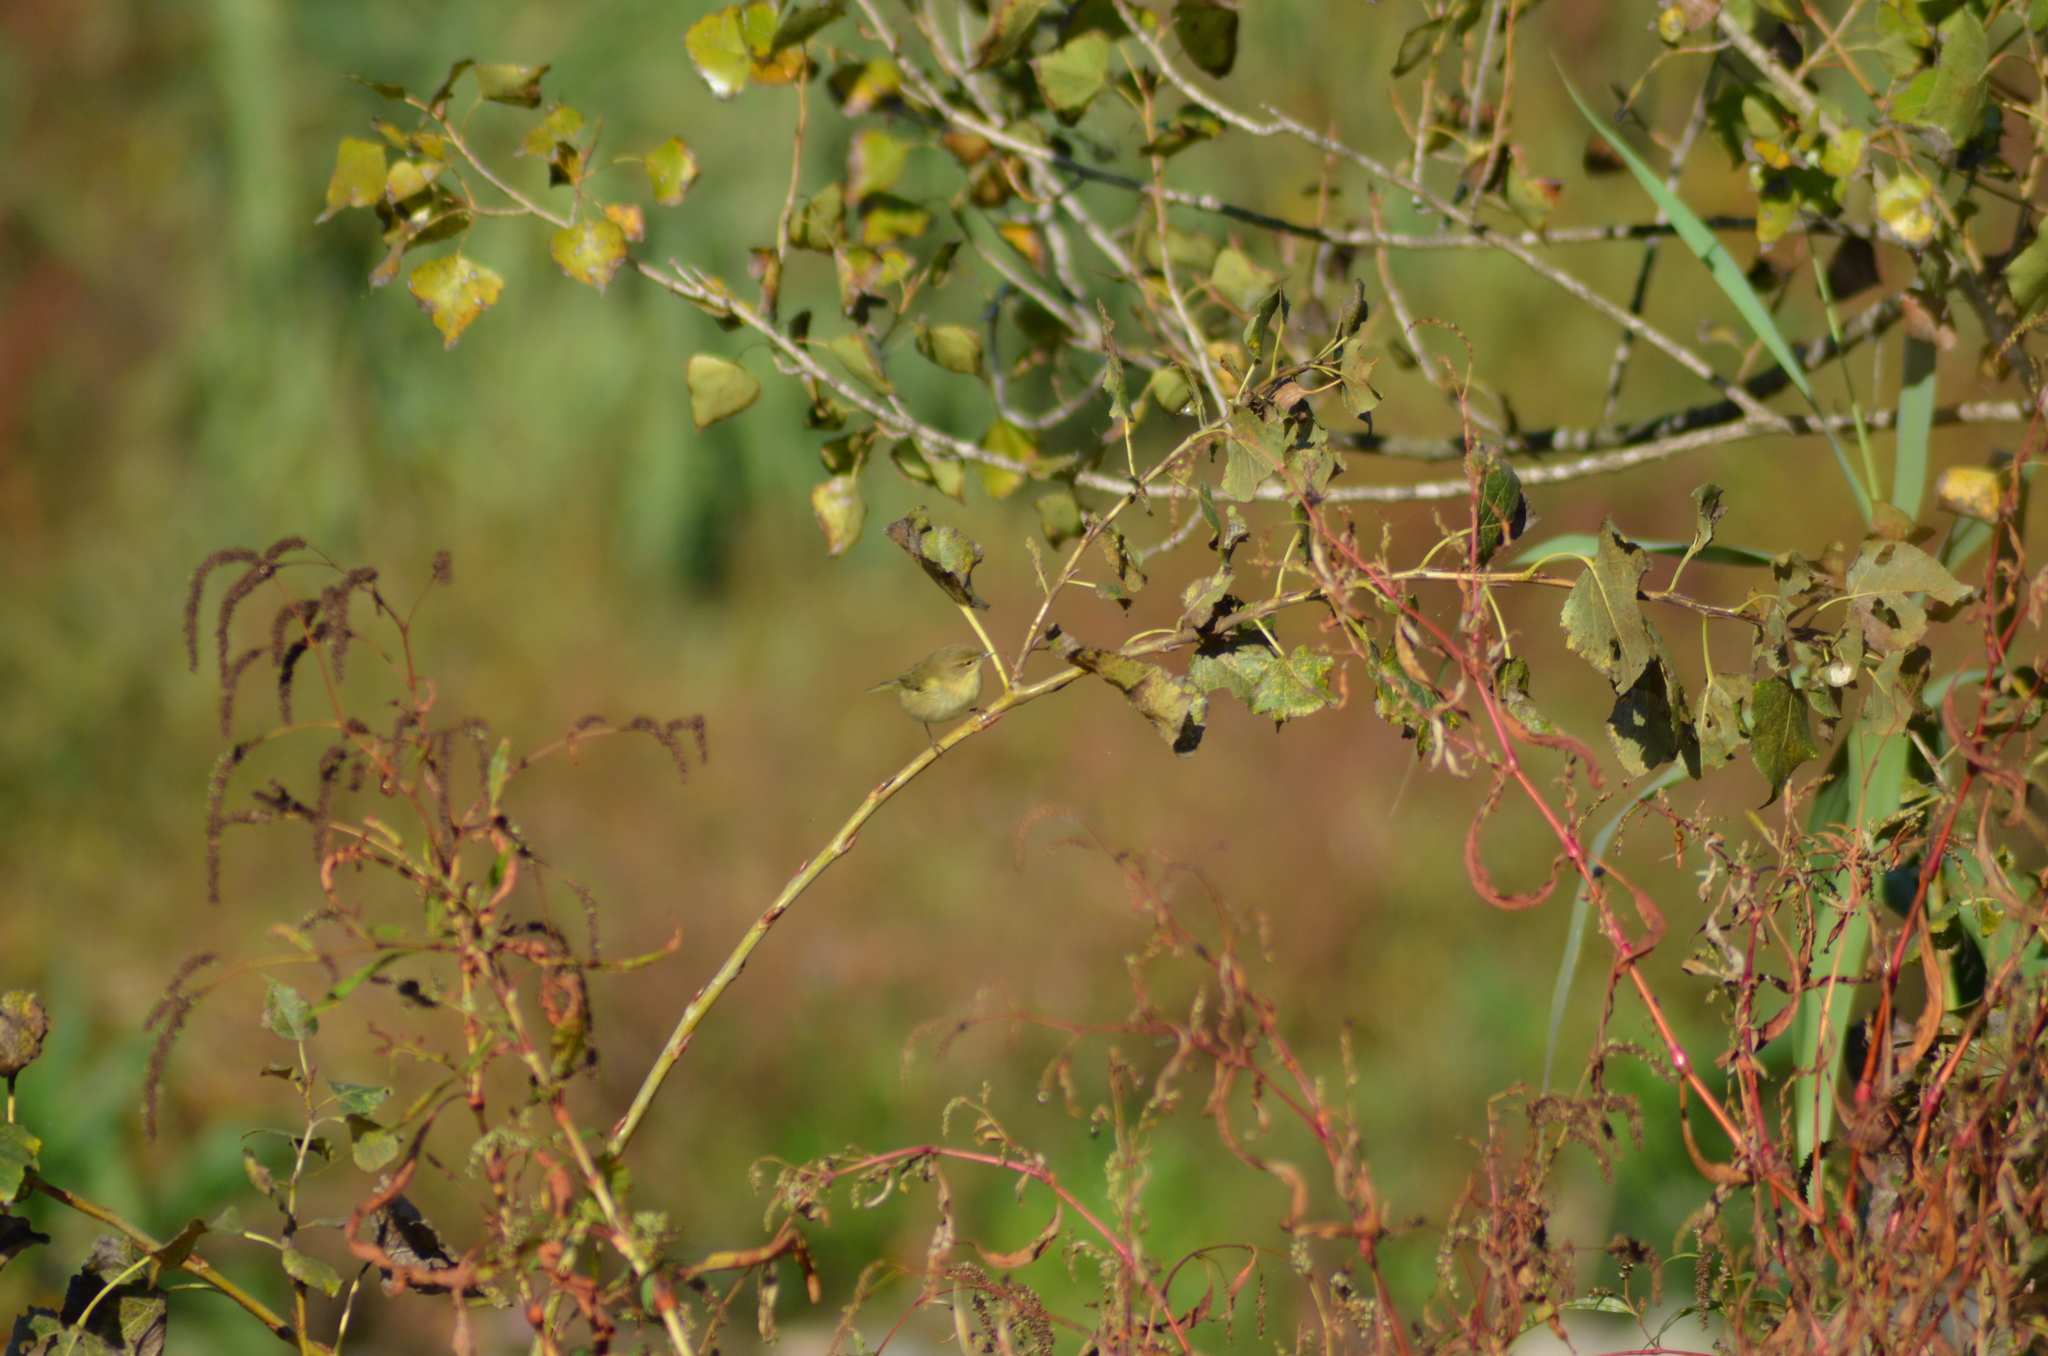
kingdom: Animalia
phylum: Chordata
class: Aves
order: Passeriformes
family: Phylloscopidae
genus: Phylloscopus
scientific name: Phylloscopus collybita
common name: Common chiffchaff
